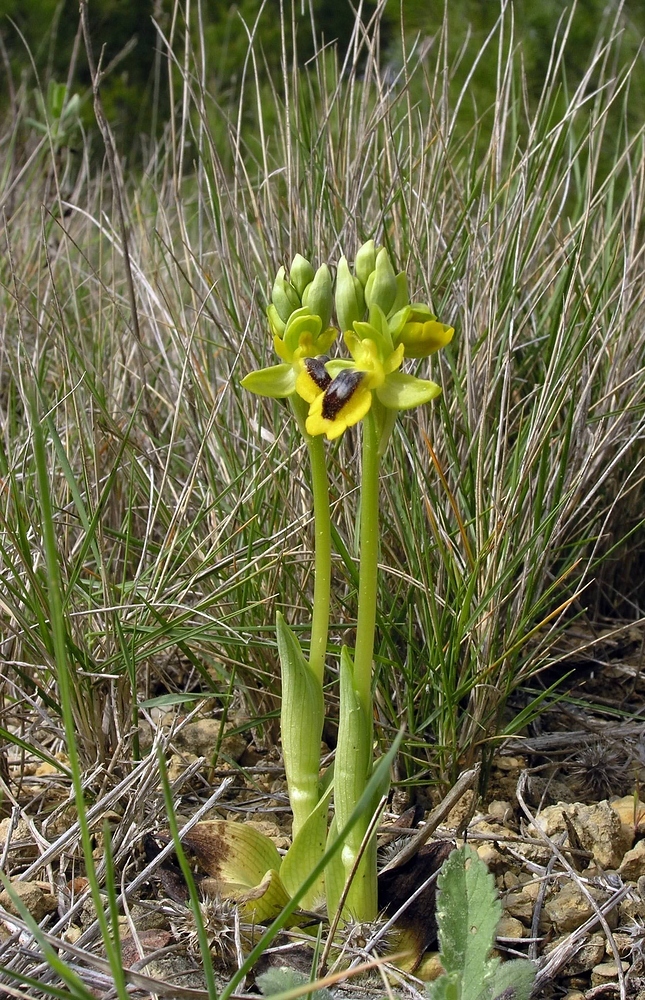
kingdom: Plantae
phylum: Tracheophyta
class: Liliopsida
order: Asparagales
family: Orchidaceae
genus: Ophrys
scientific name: Ophrys lutea
